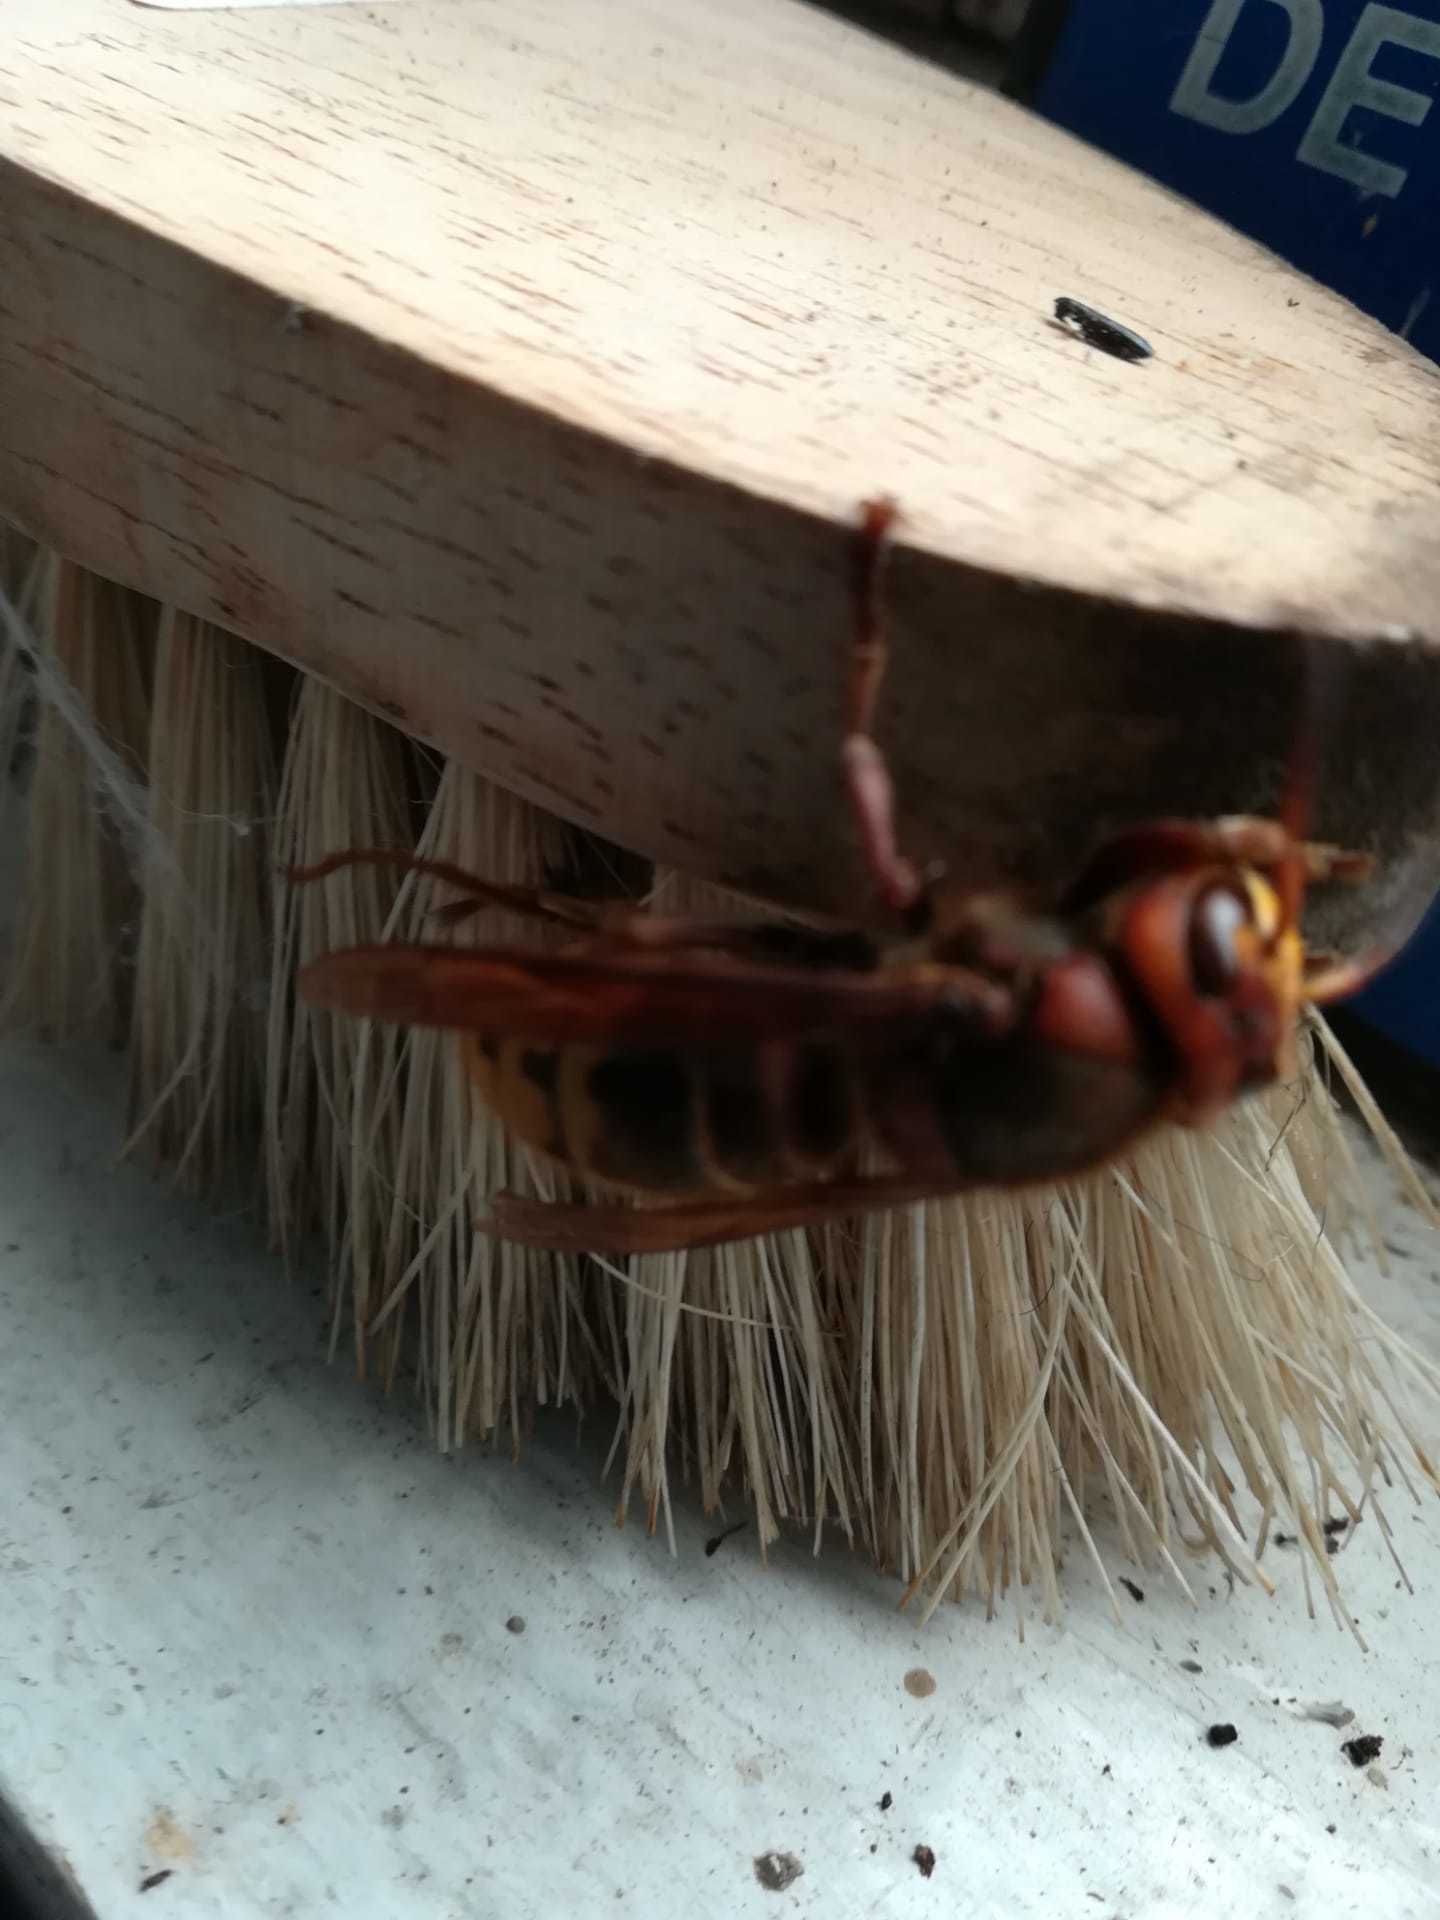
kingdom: Animalia
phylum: Arthropoda
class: Insecta
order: Hymenoptera
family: Vespidae
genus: Vespa
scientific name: Vespa crabro
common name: Hornet
